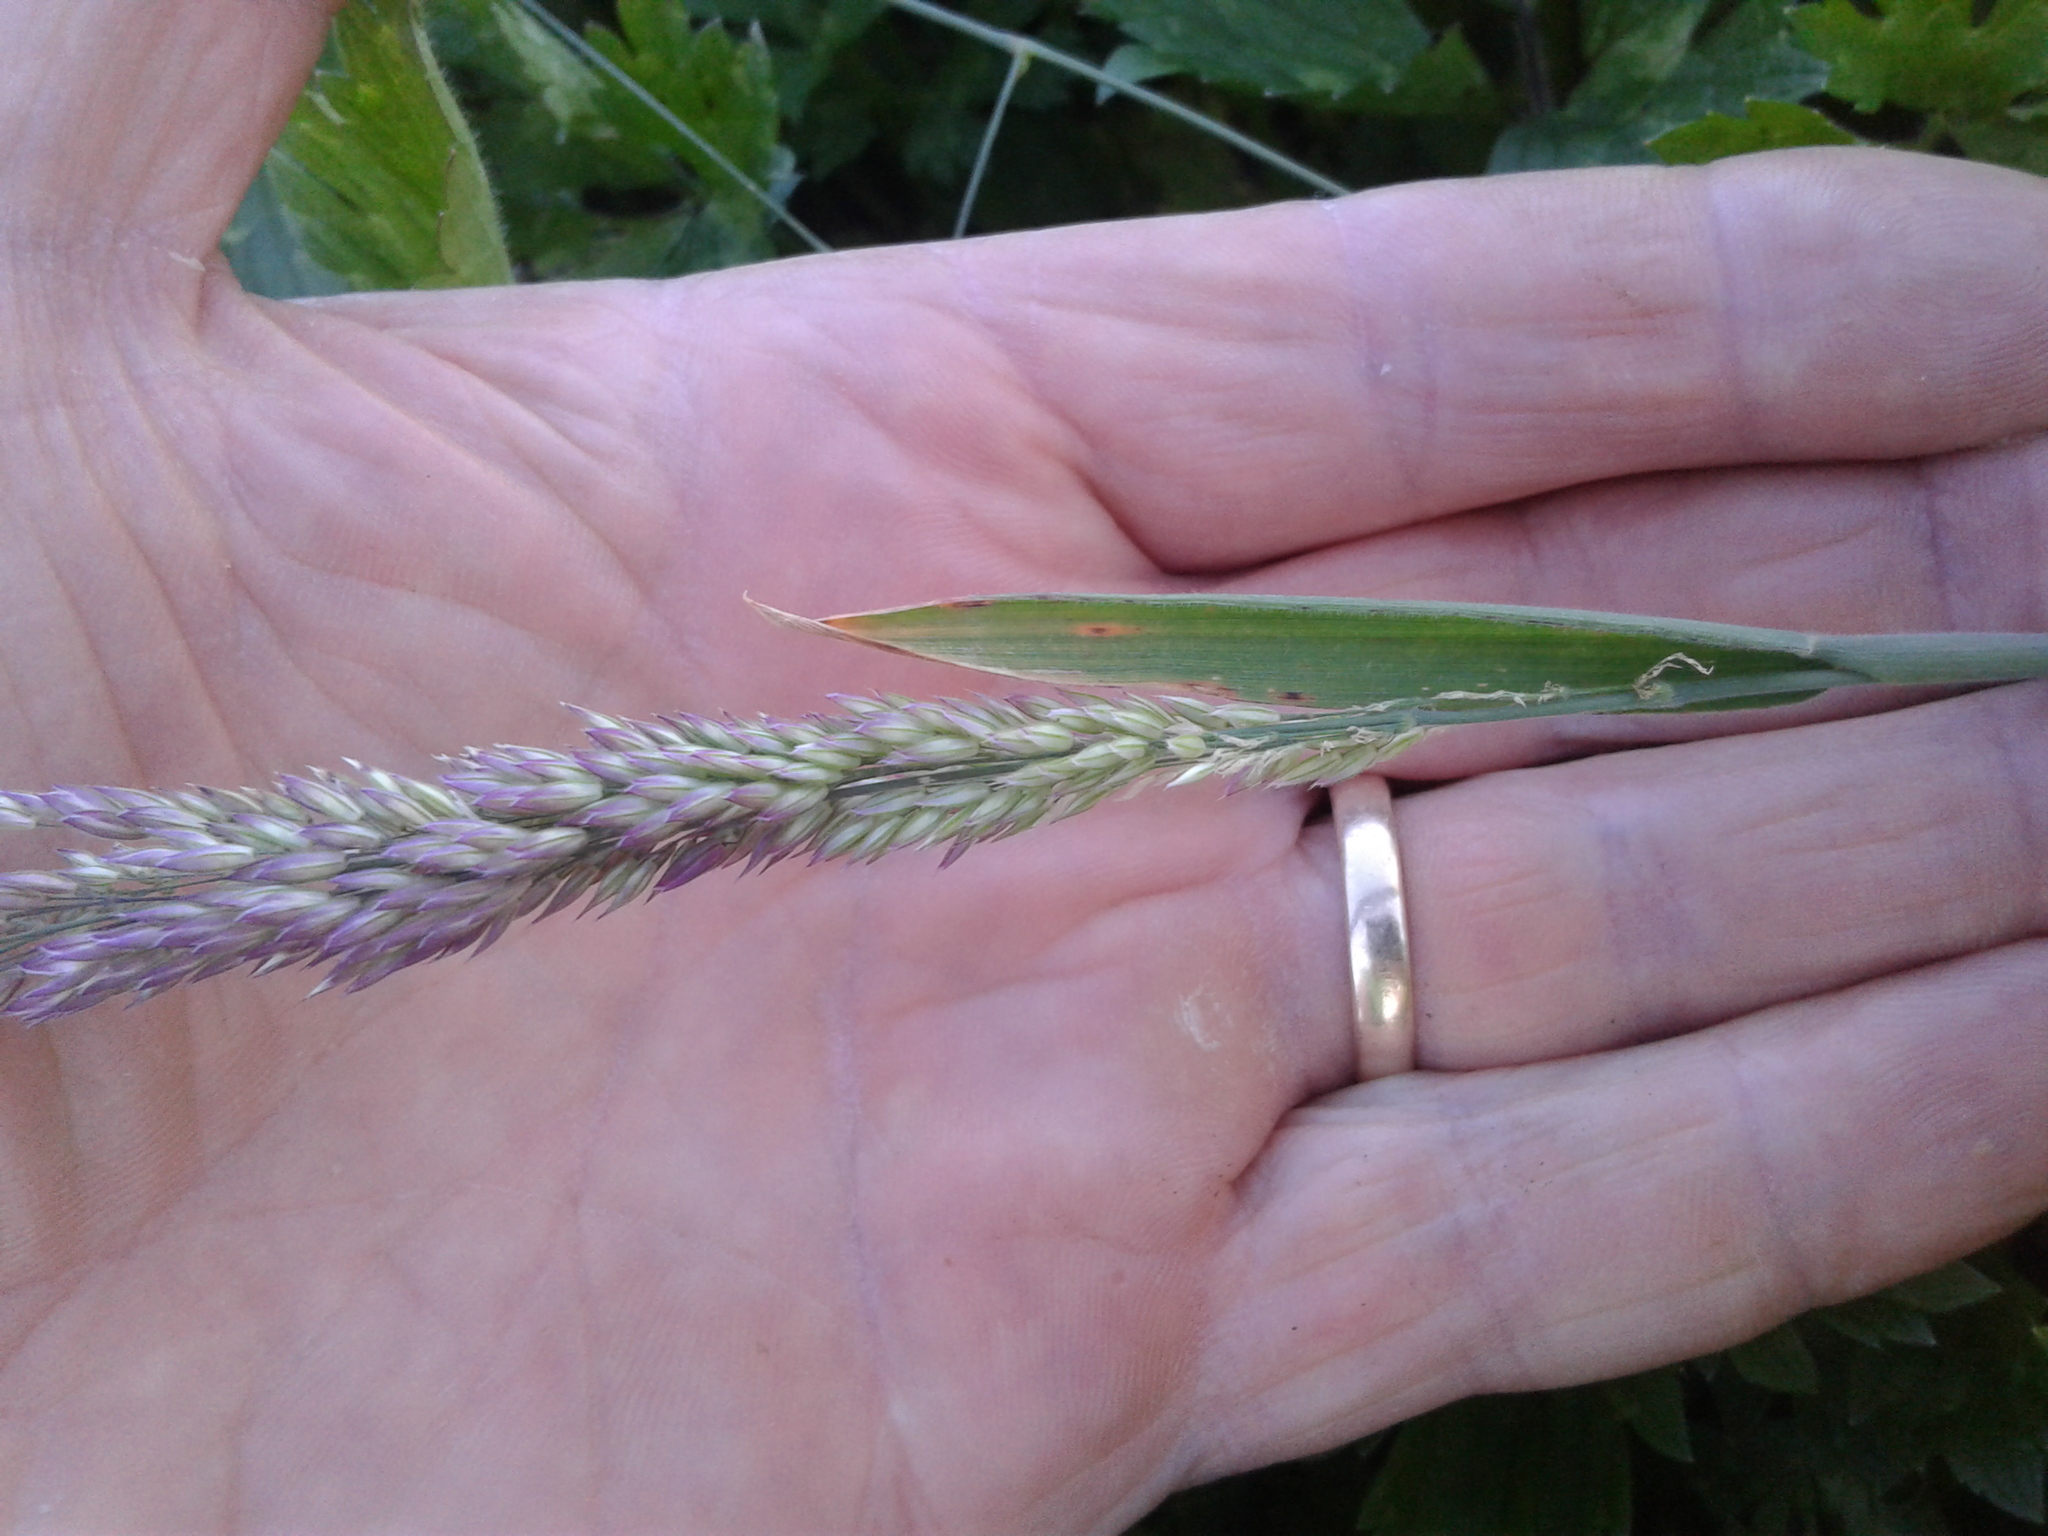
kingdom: Plantae
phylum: Tracheophyta
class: Liliopsida
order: Poales
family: Poaceae
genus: Holcus
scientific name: Holcus lanatus
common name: Yorkshire-fog
